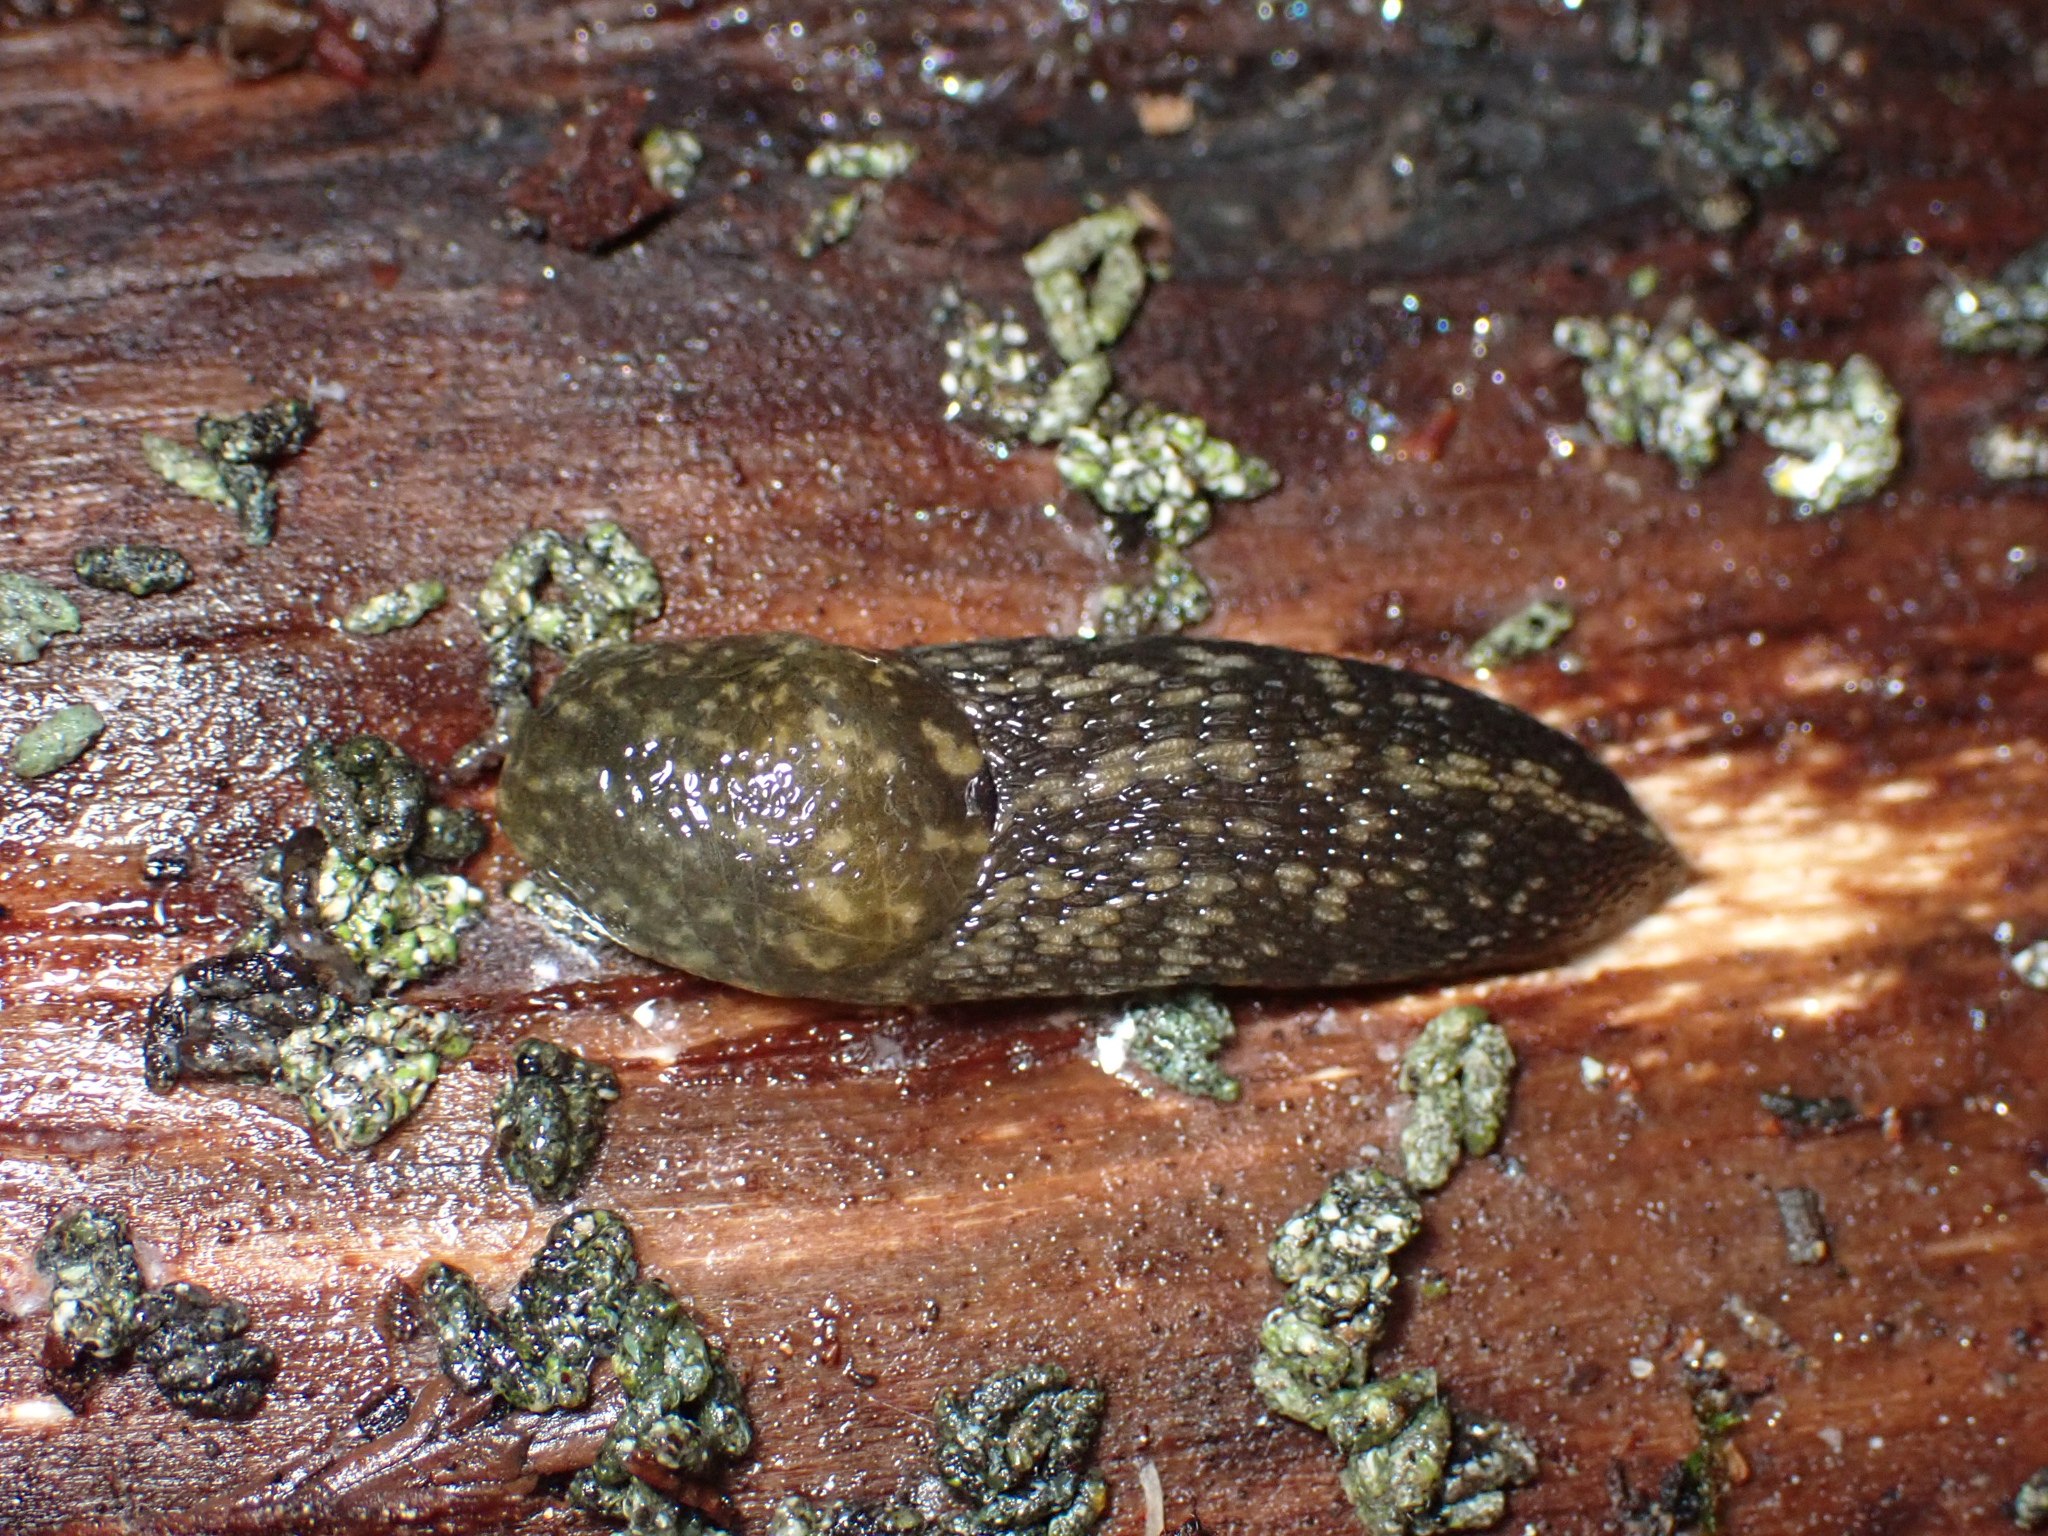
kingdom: Animalia
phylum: Mollusca
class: Gastropoda
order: Stylommatophora
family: Limacidae
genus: Limacus
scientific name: Limacus flavus
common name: Yellow gardenslug
